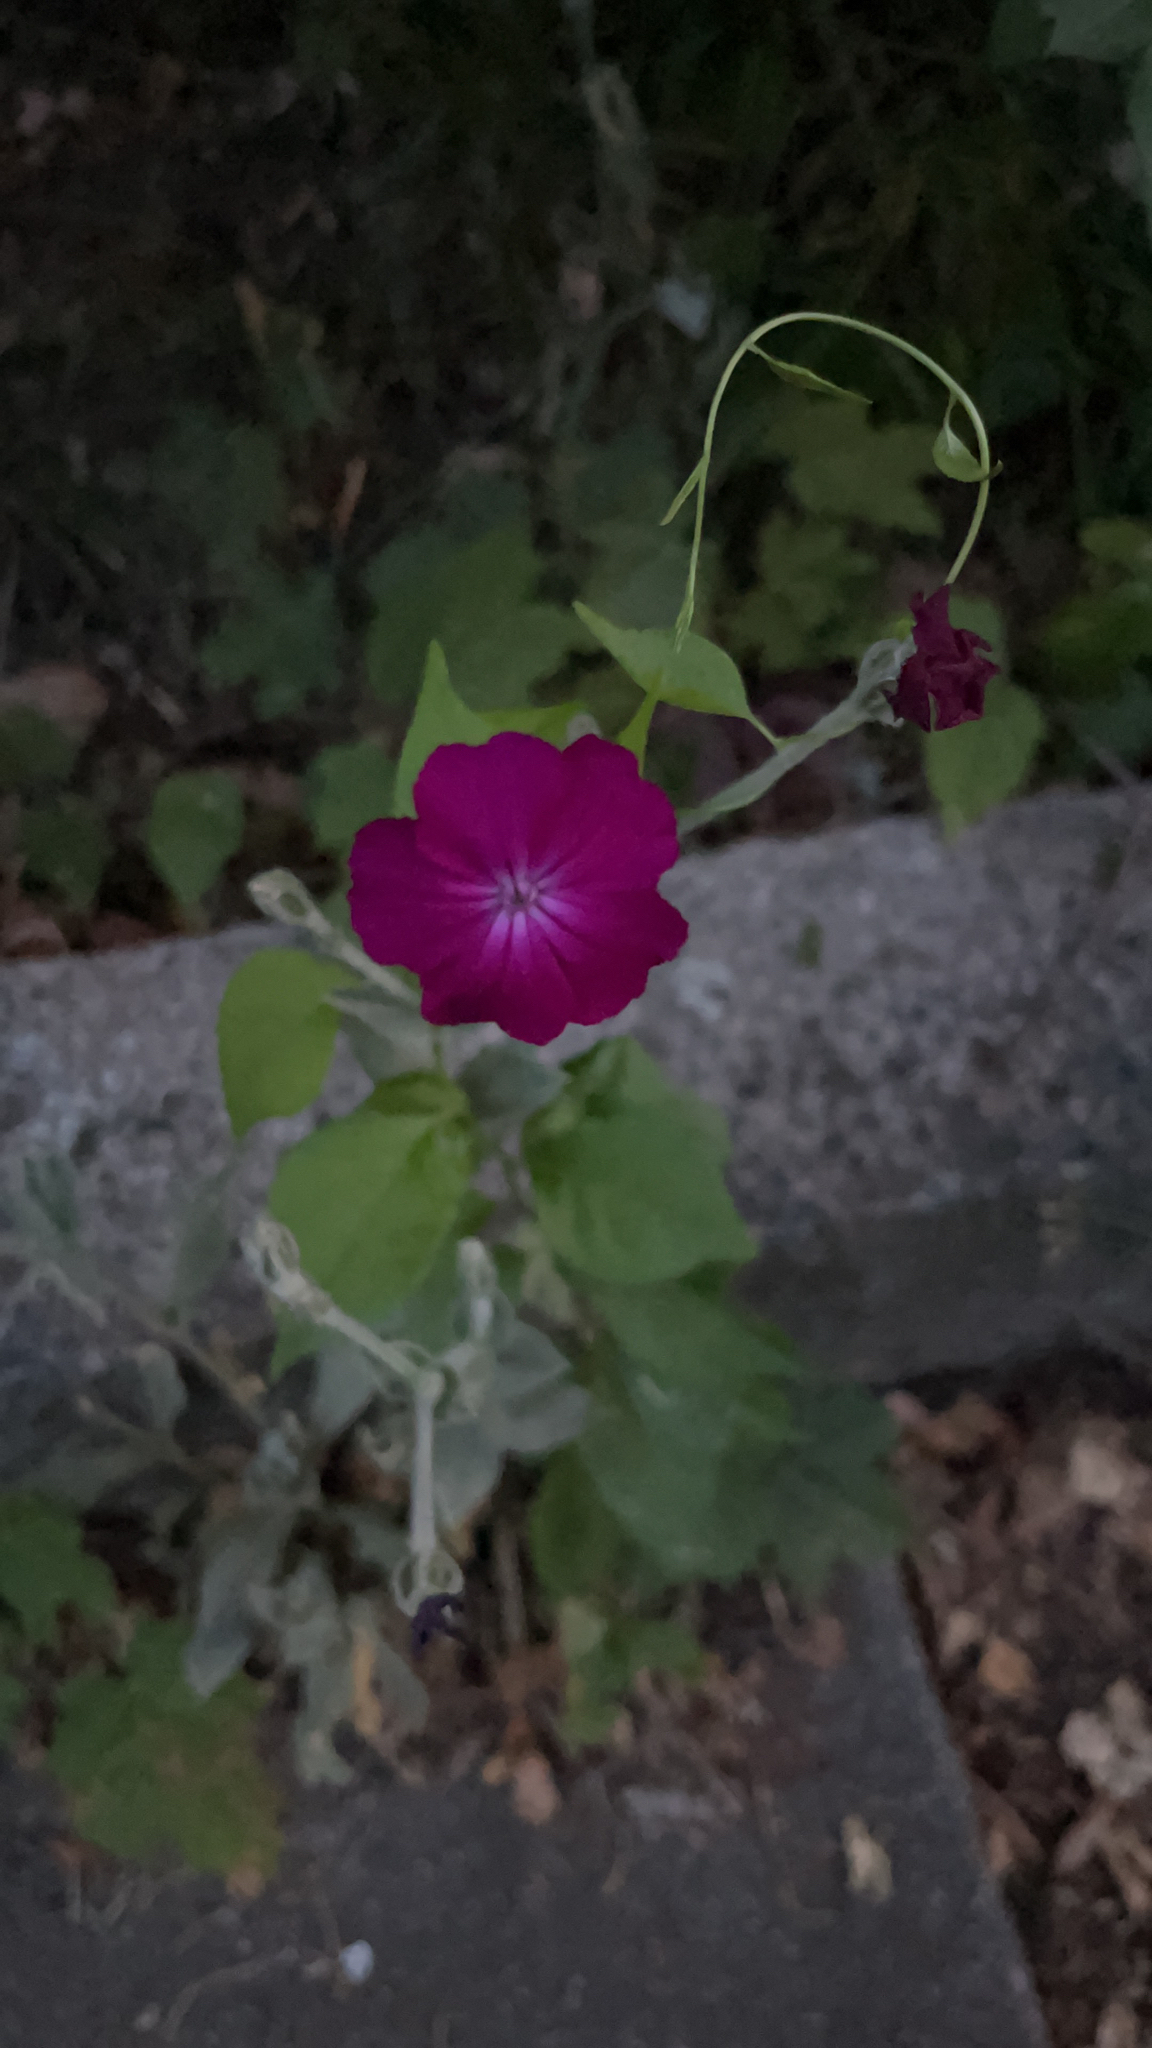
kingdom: Plantae
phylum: Tracheophyta
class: Magnoliopsida
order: Caryophyllales
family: Caryophyllaceae
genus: Silene
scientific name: Silene coronaria
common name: Rose campion
